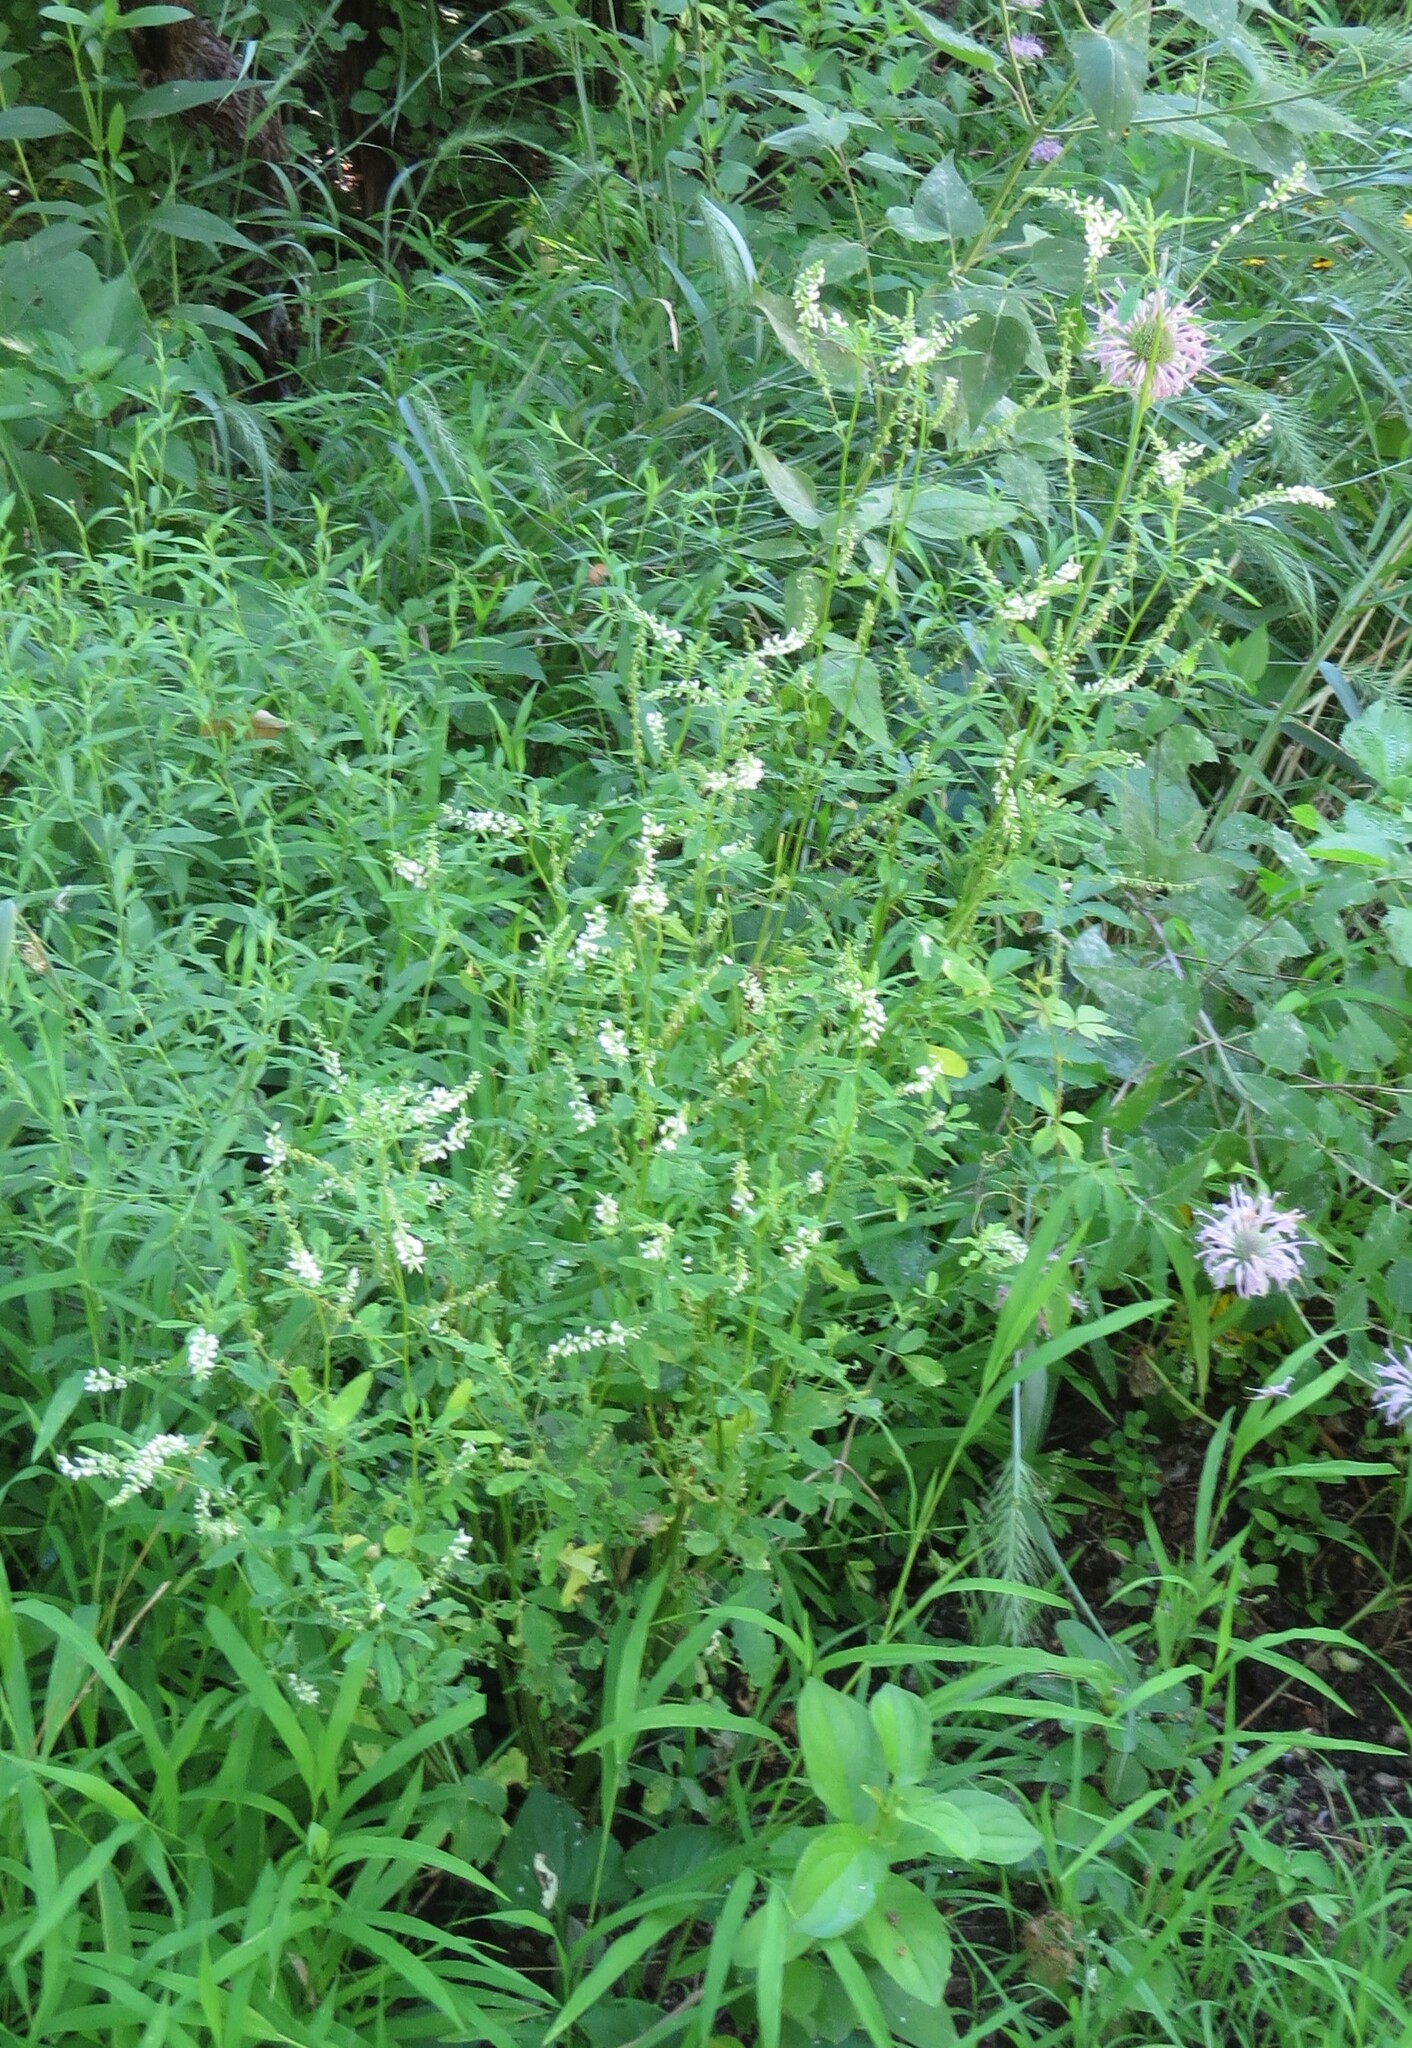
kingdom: Plantae
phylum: Tracheophyta
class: Magnoliopsida
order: Fabales
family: Fabaceae
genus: Melilotus
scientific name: Melilotus albus
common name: White melilot
